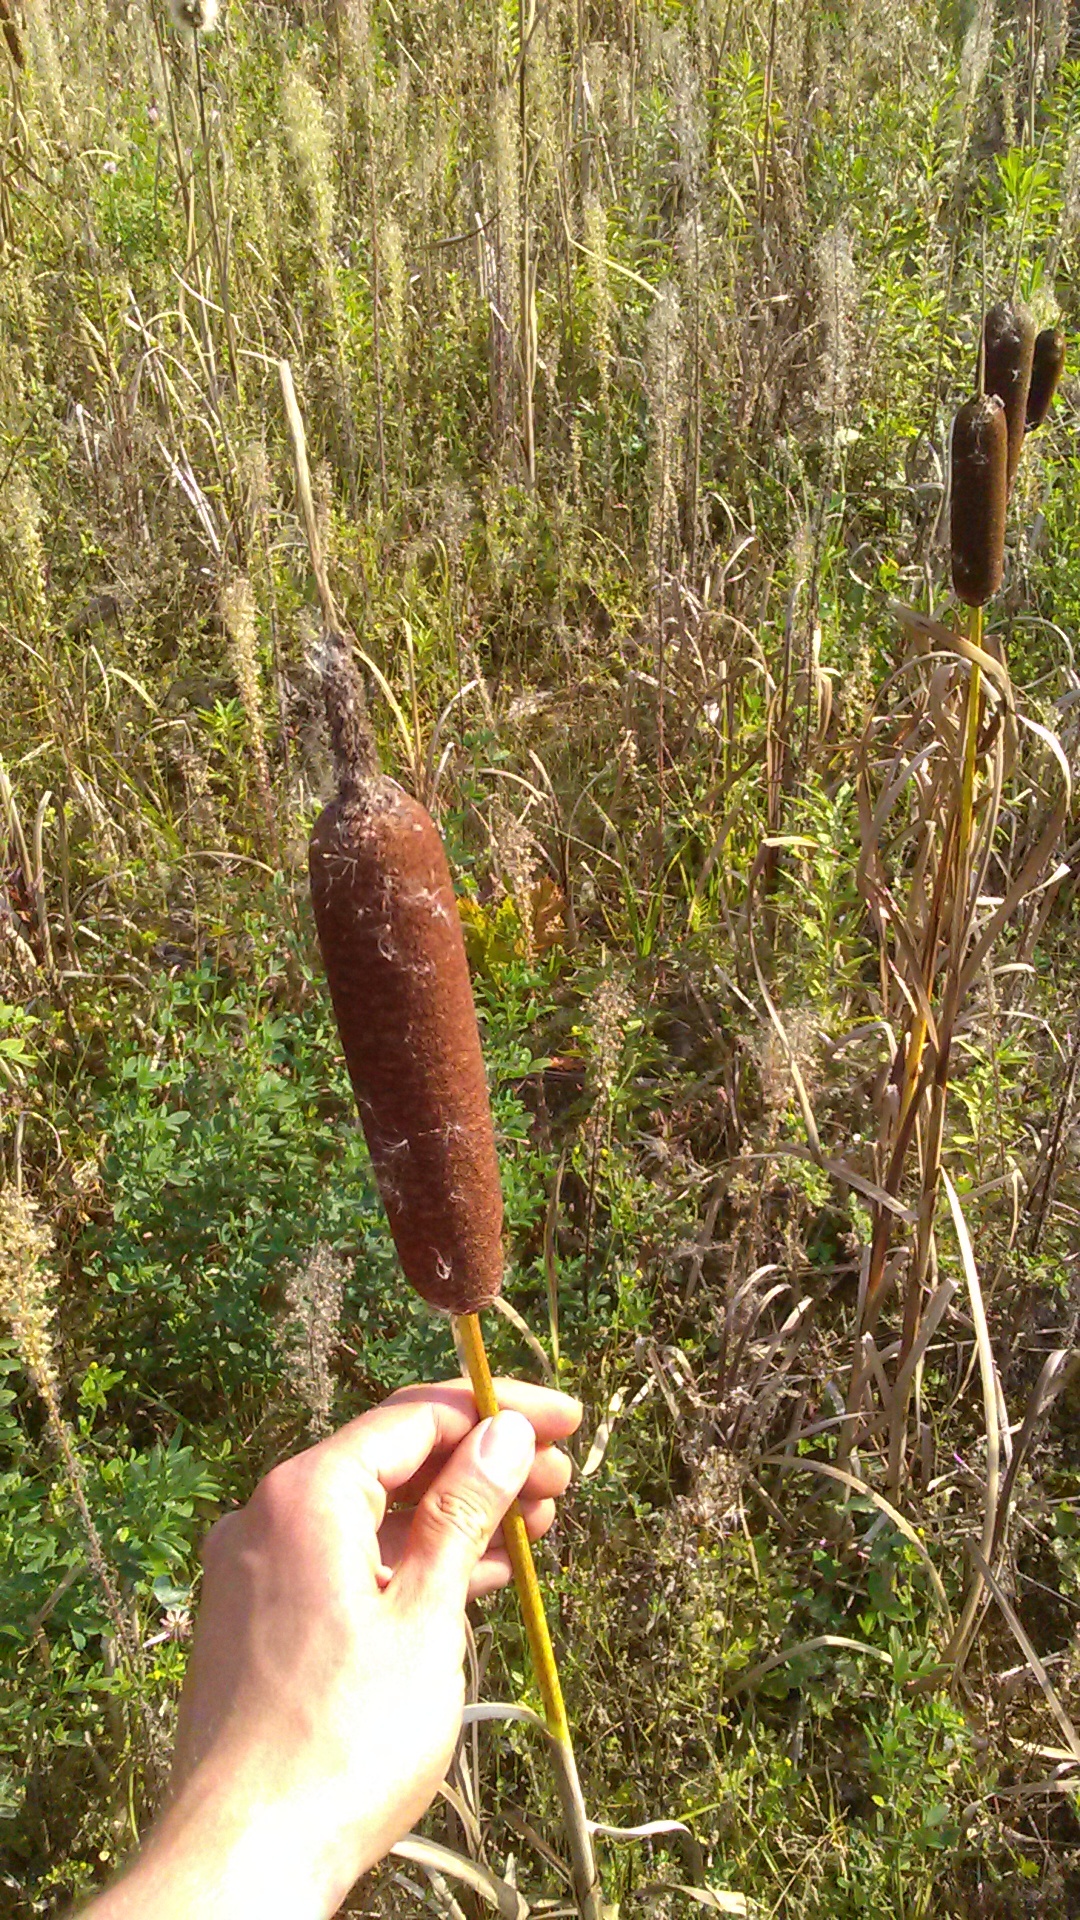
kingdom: Plantae
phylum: Tracheophyta
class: Liliopsida
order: Poales
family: Typhaceae
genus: Typha
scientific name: Typha latifolia
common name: Broadleaf cattail
